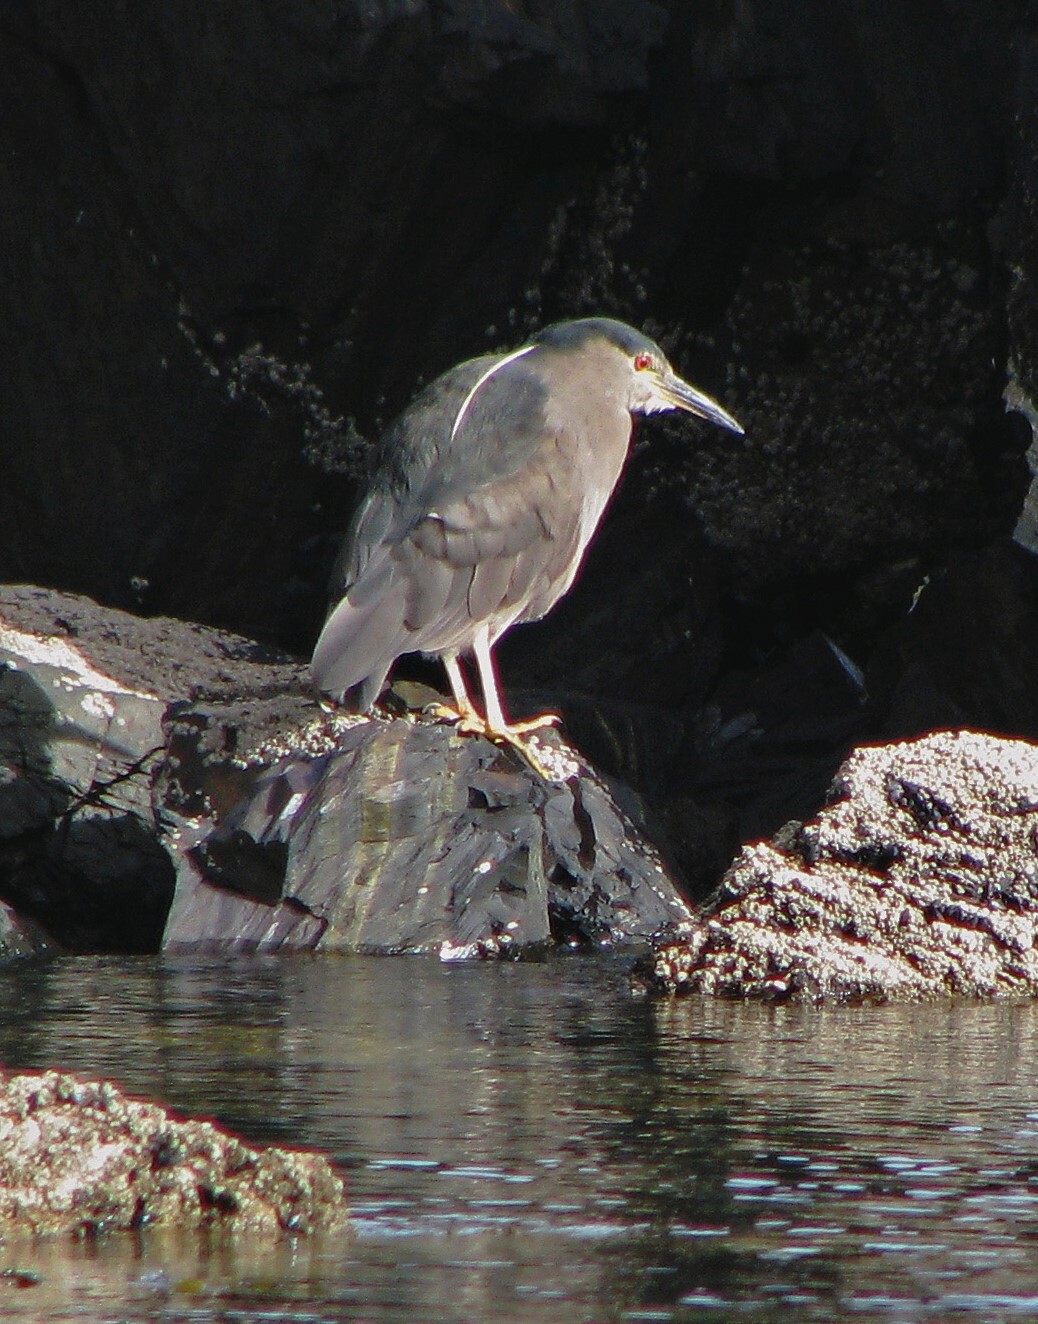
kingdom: Animalia
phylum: Chordata
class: Aves
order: Pelecaniformes
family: Ardeidae
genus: Nycticorax
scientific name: Nycticorax nycticorax
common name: Black-crowned night heron
